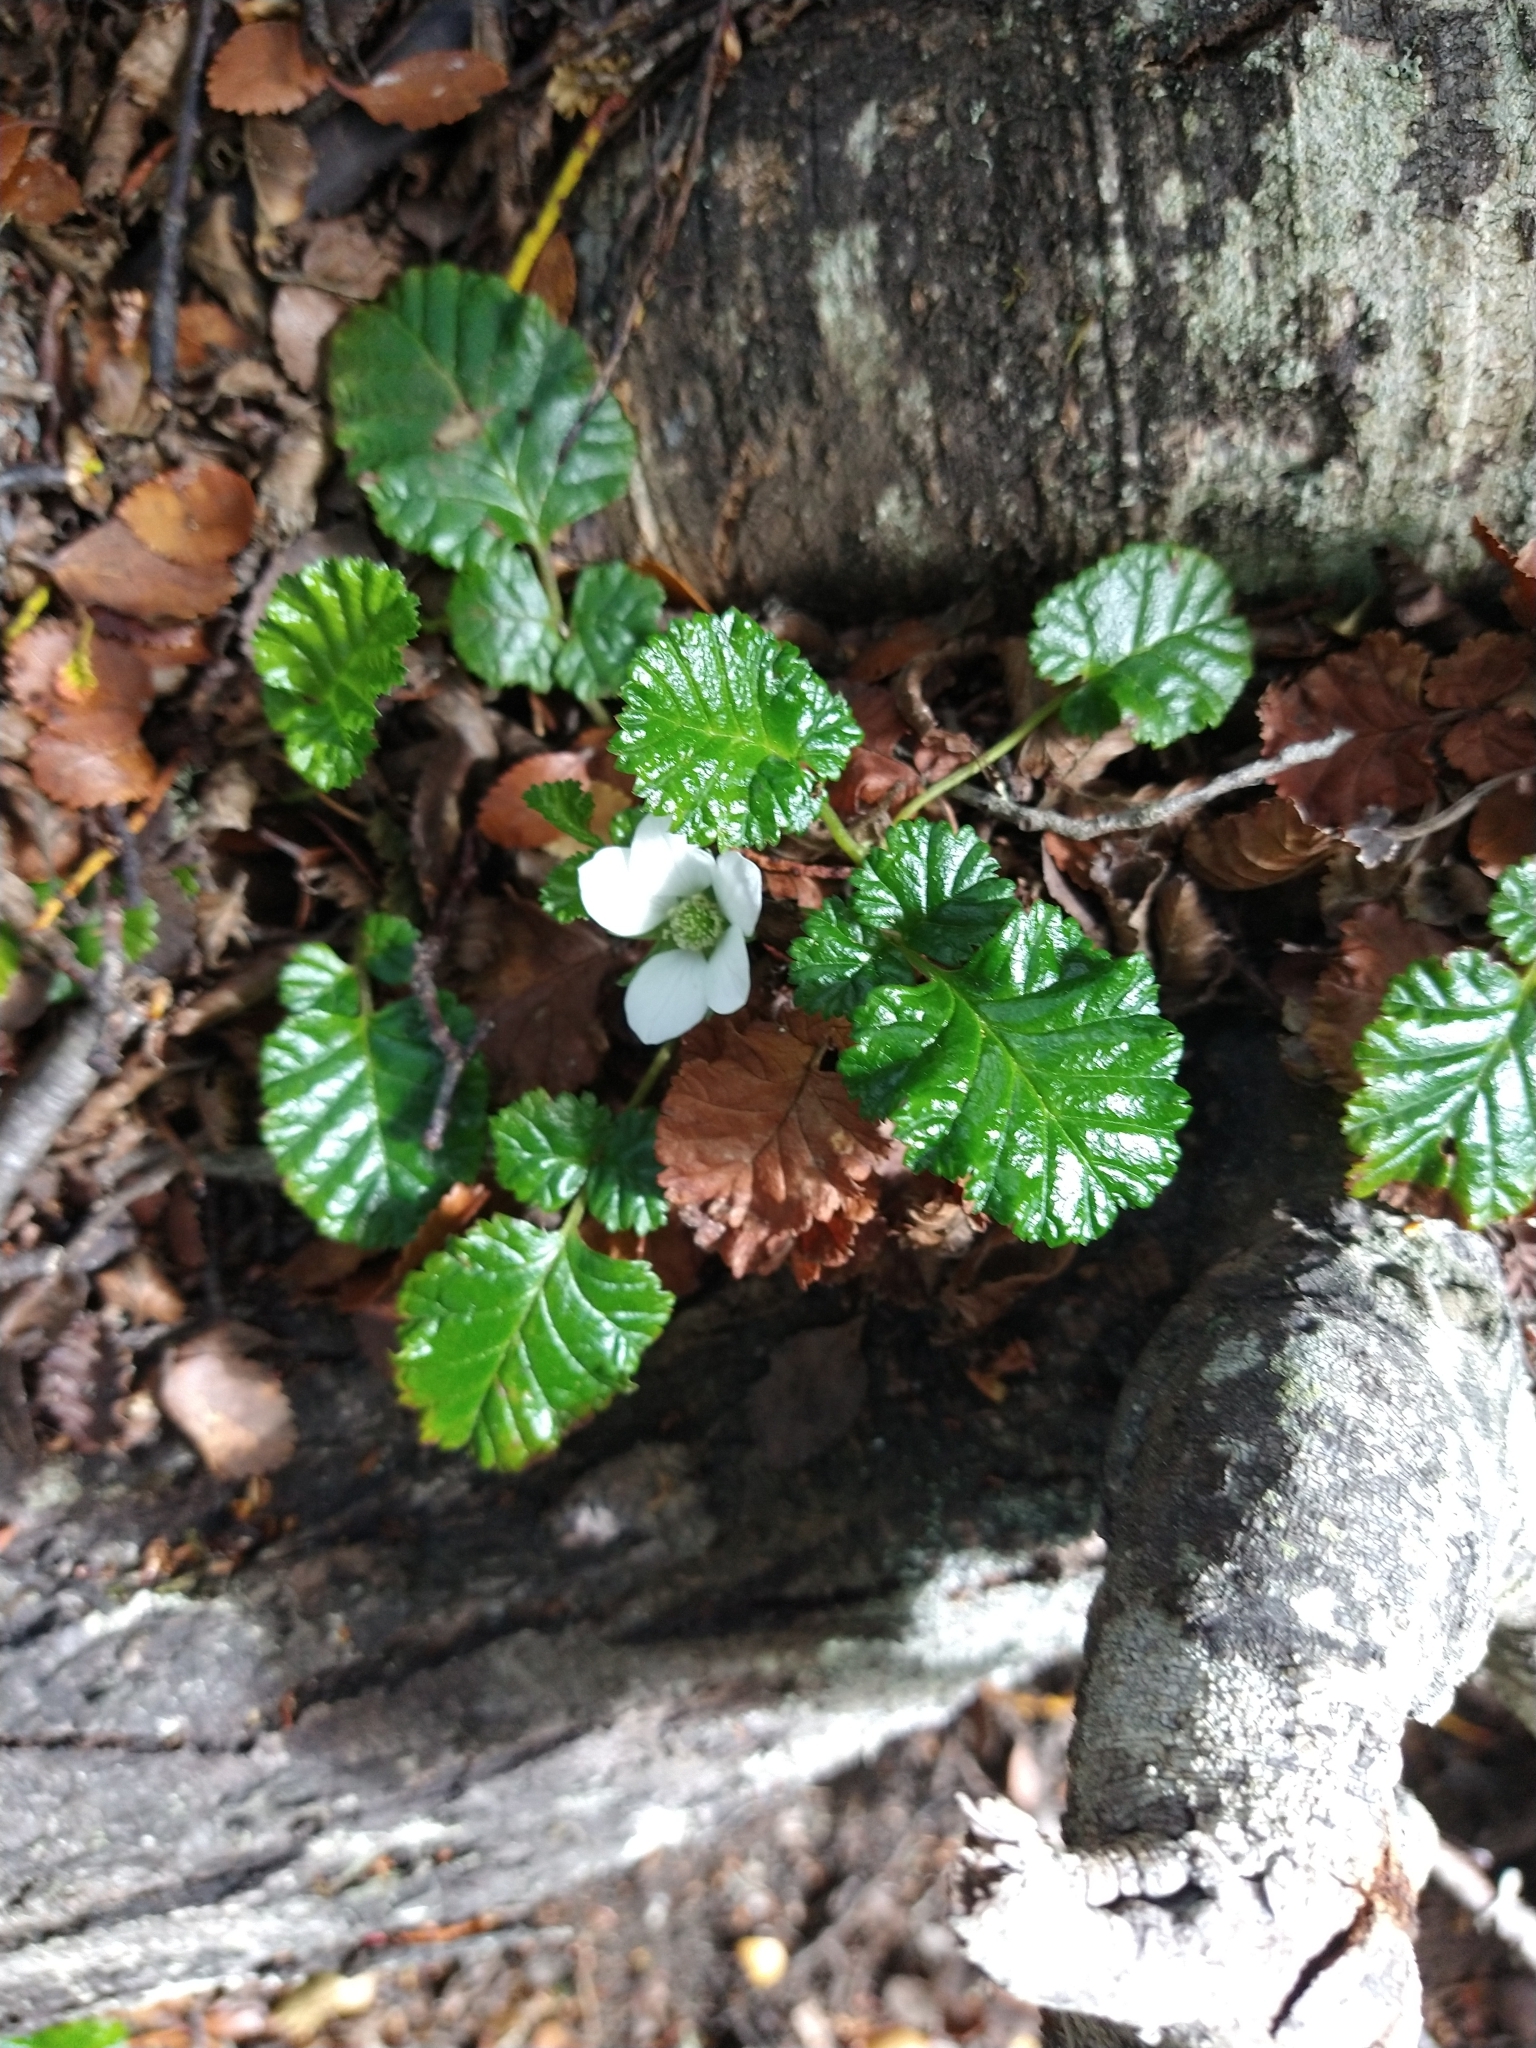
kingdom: Plantae
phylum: Tracheophyta
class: Magnoliopsida
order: Rosales
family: Rosaceae
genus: Rubus
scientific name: Rubus geoides
